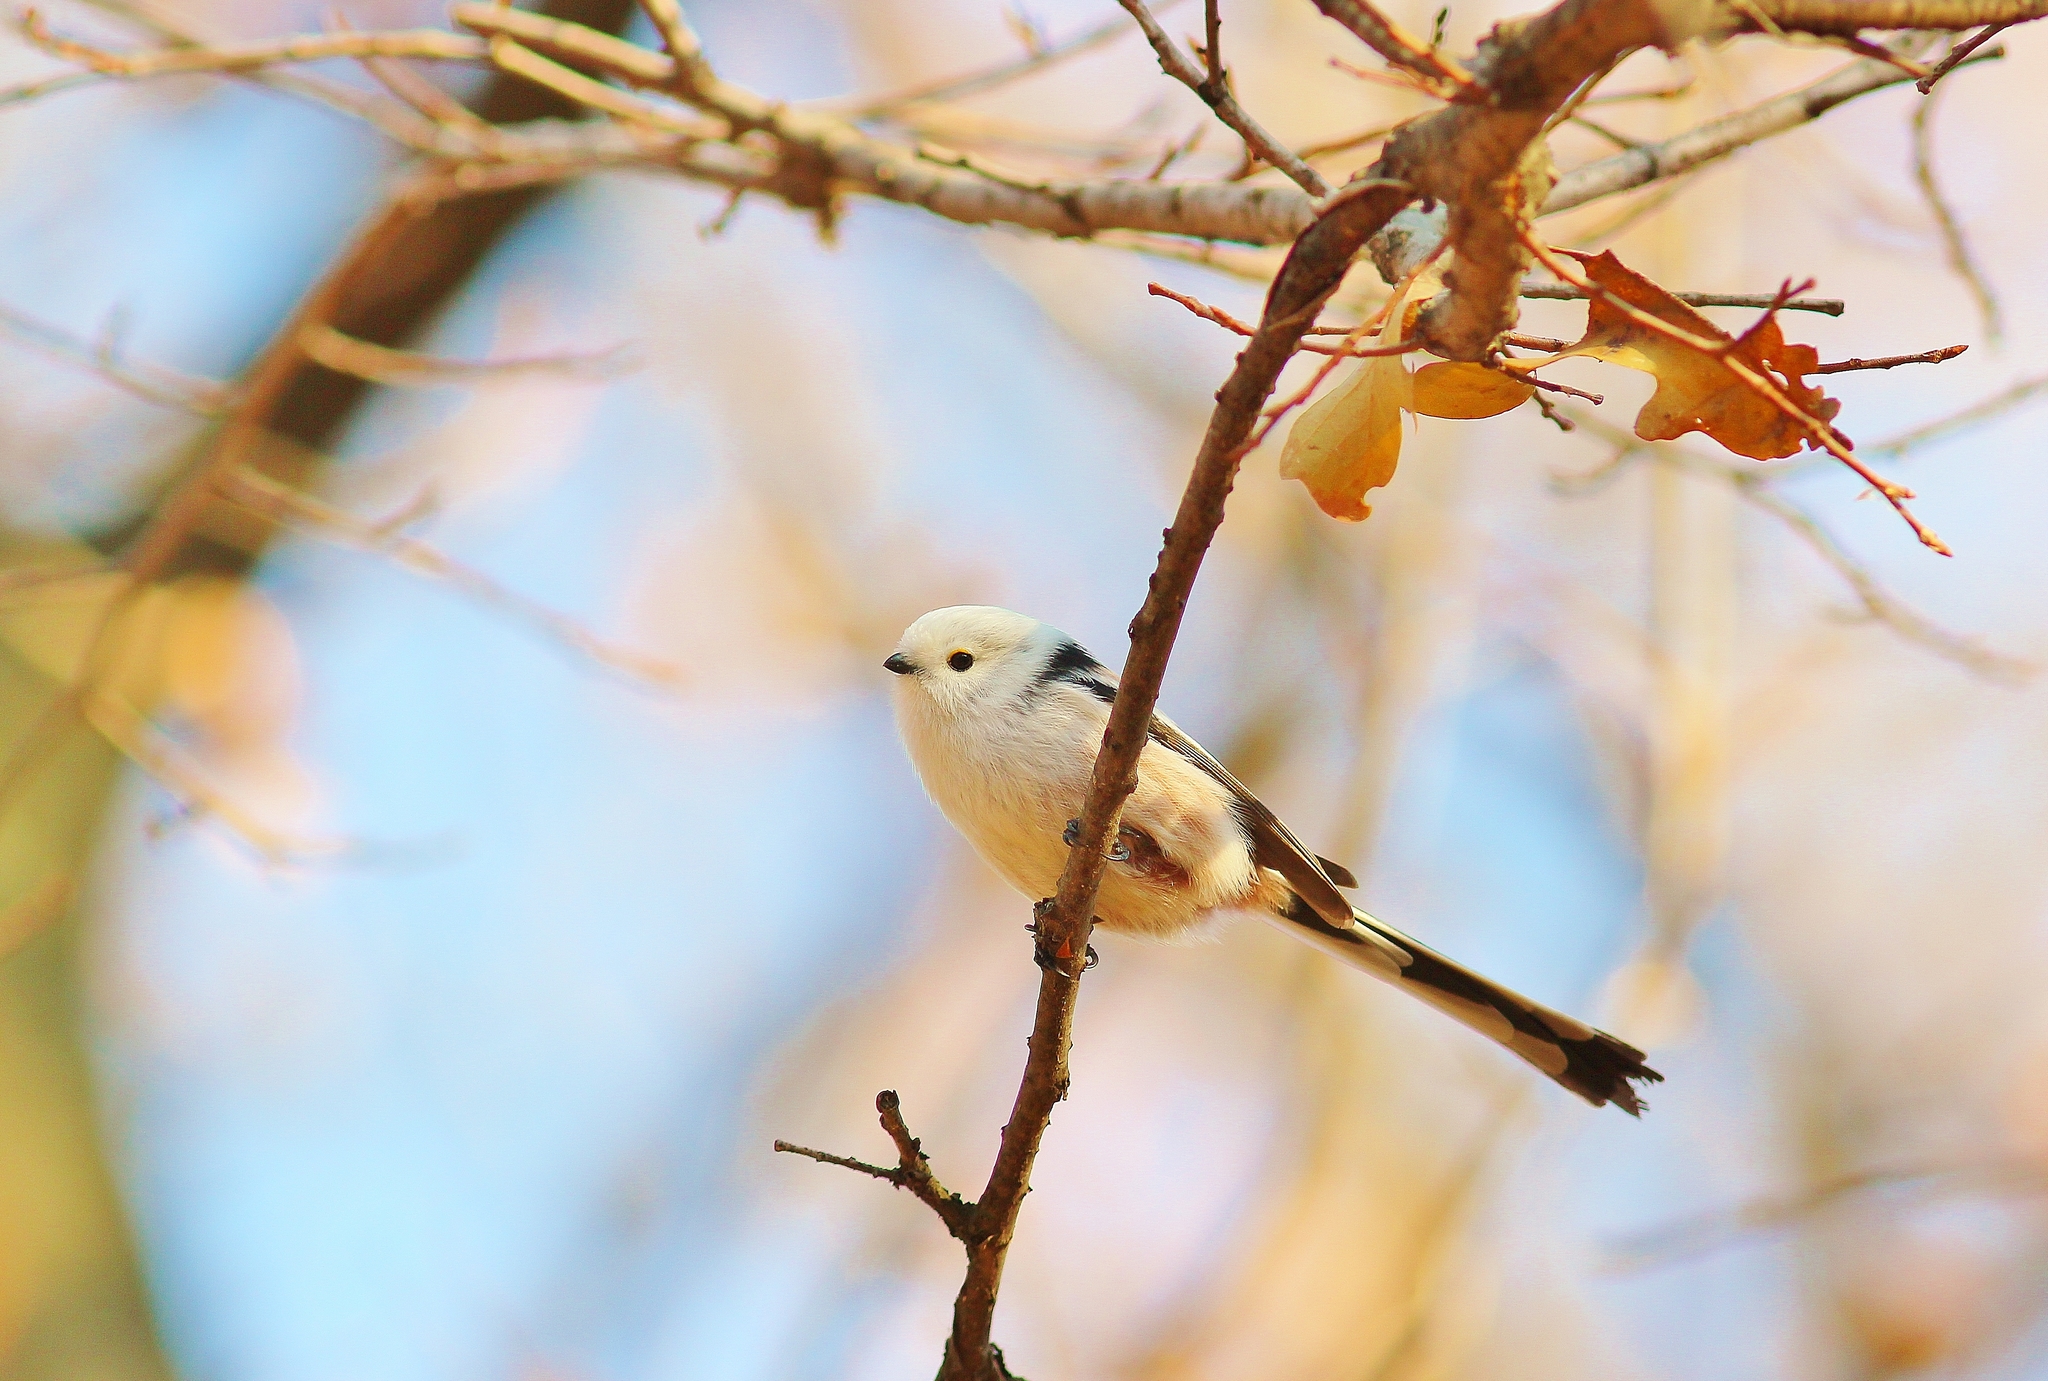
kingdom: Animalia
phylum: Chordata
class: Aves
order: Passeriformes
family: Aegithalidae
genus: Aegithalos
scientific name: Aegithalos caudatus
